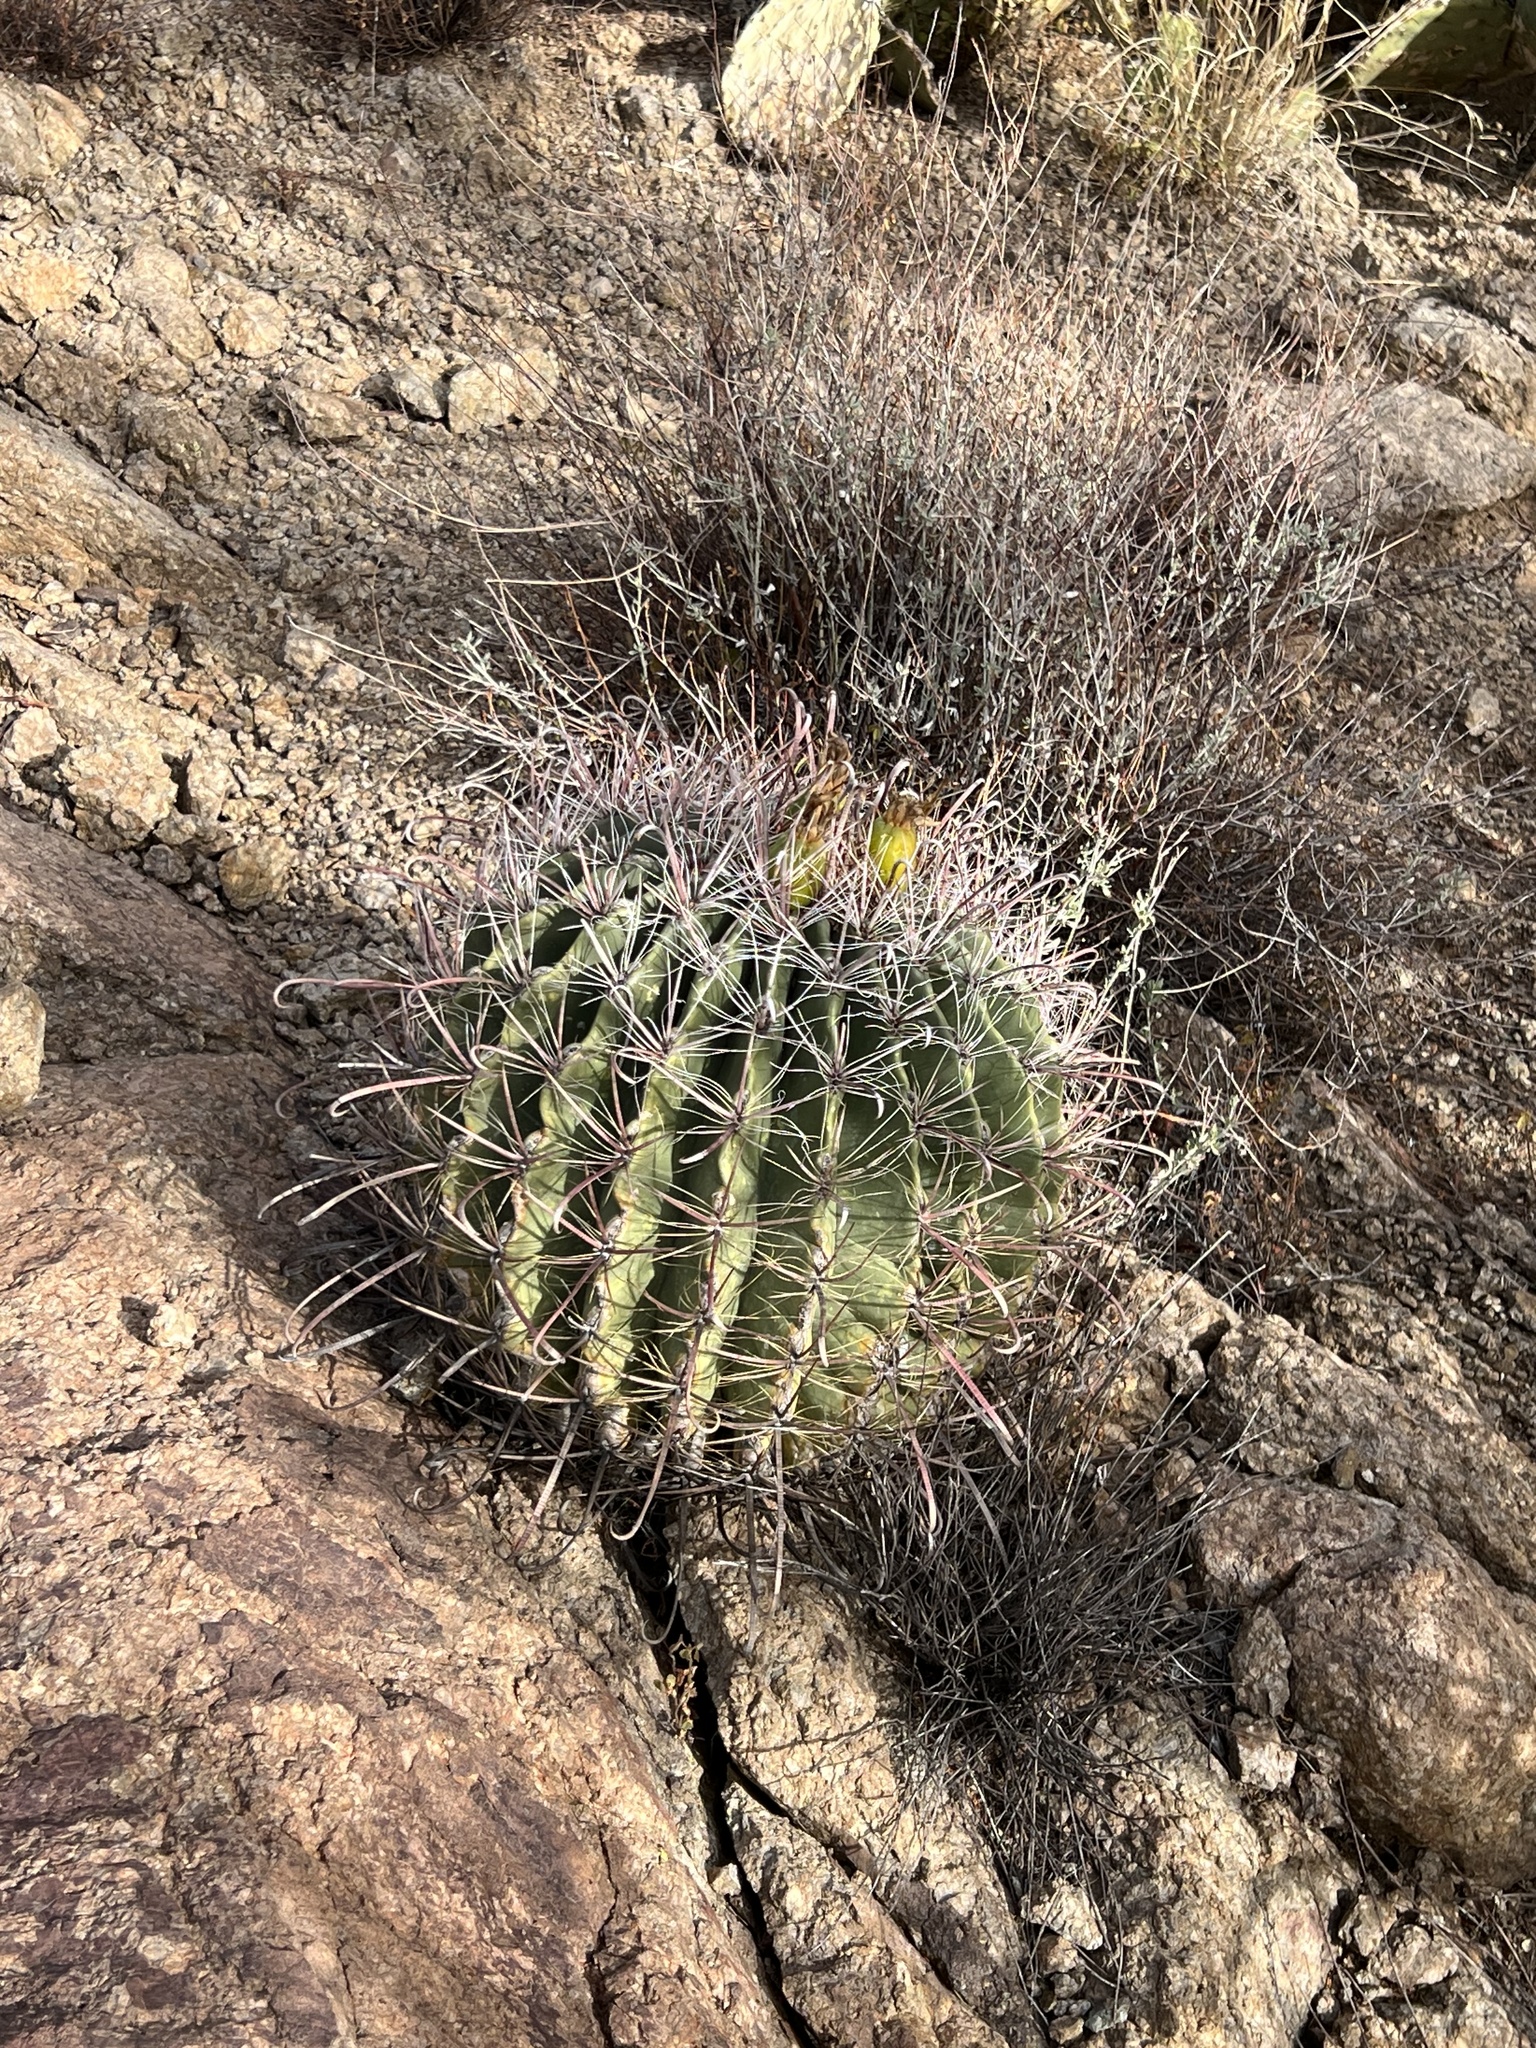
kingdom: Plantae
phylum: Tracheophyta
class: Magnoliopsida
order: Caryophyllales
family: Cactaceae
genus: Ferocactus
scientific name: Ferocactus wislizeni
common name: Candy barrel cactus
